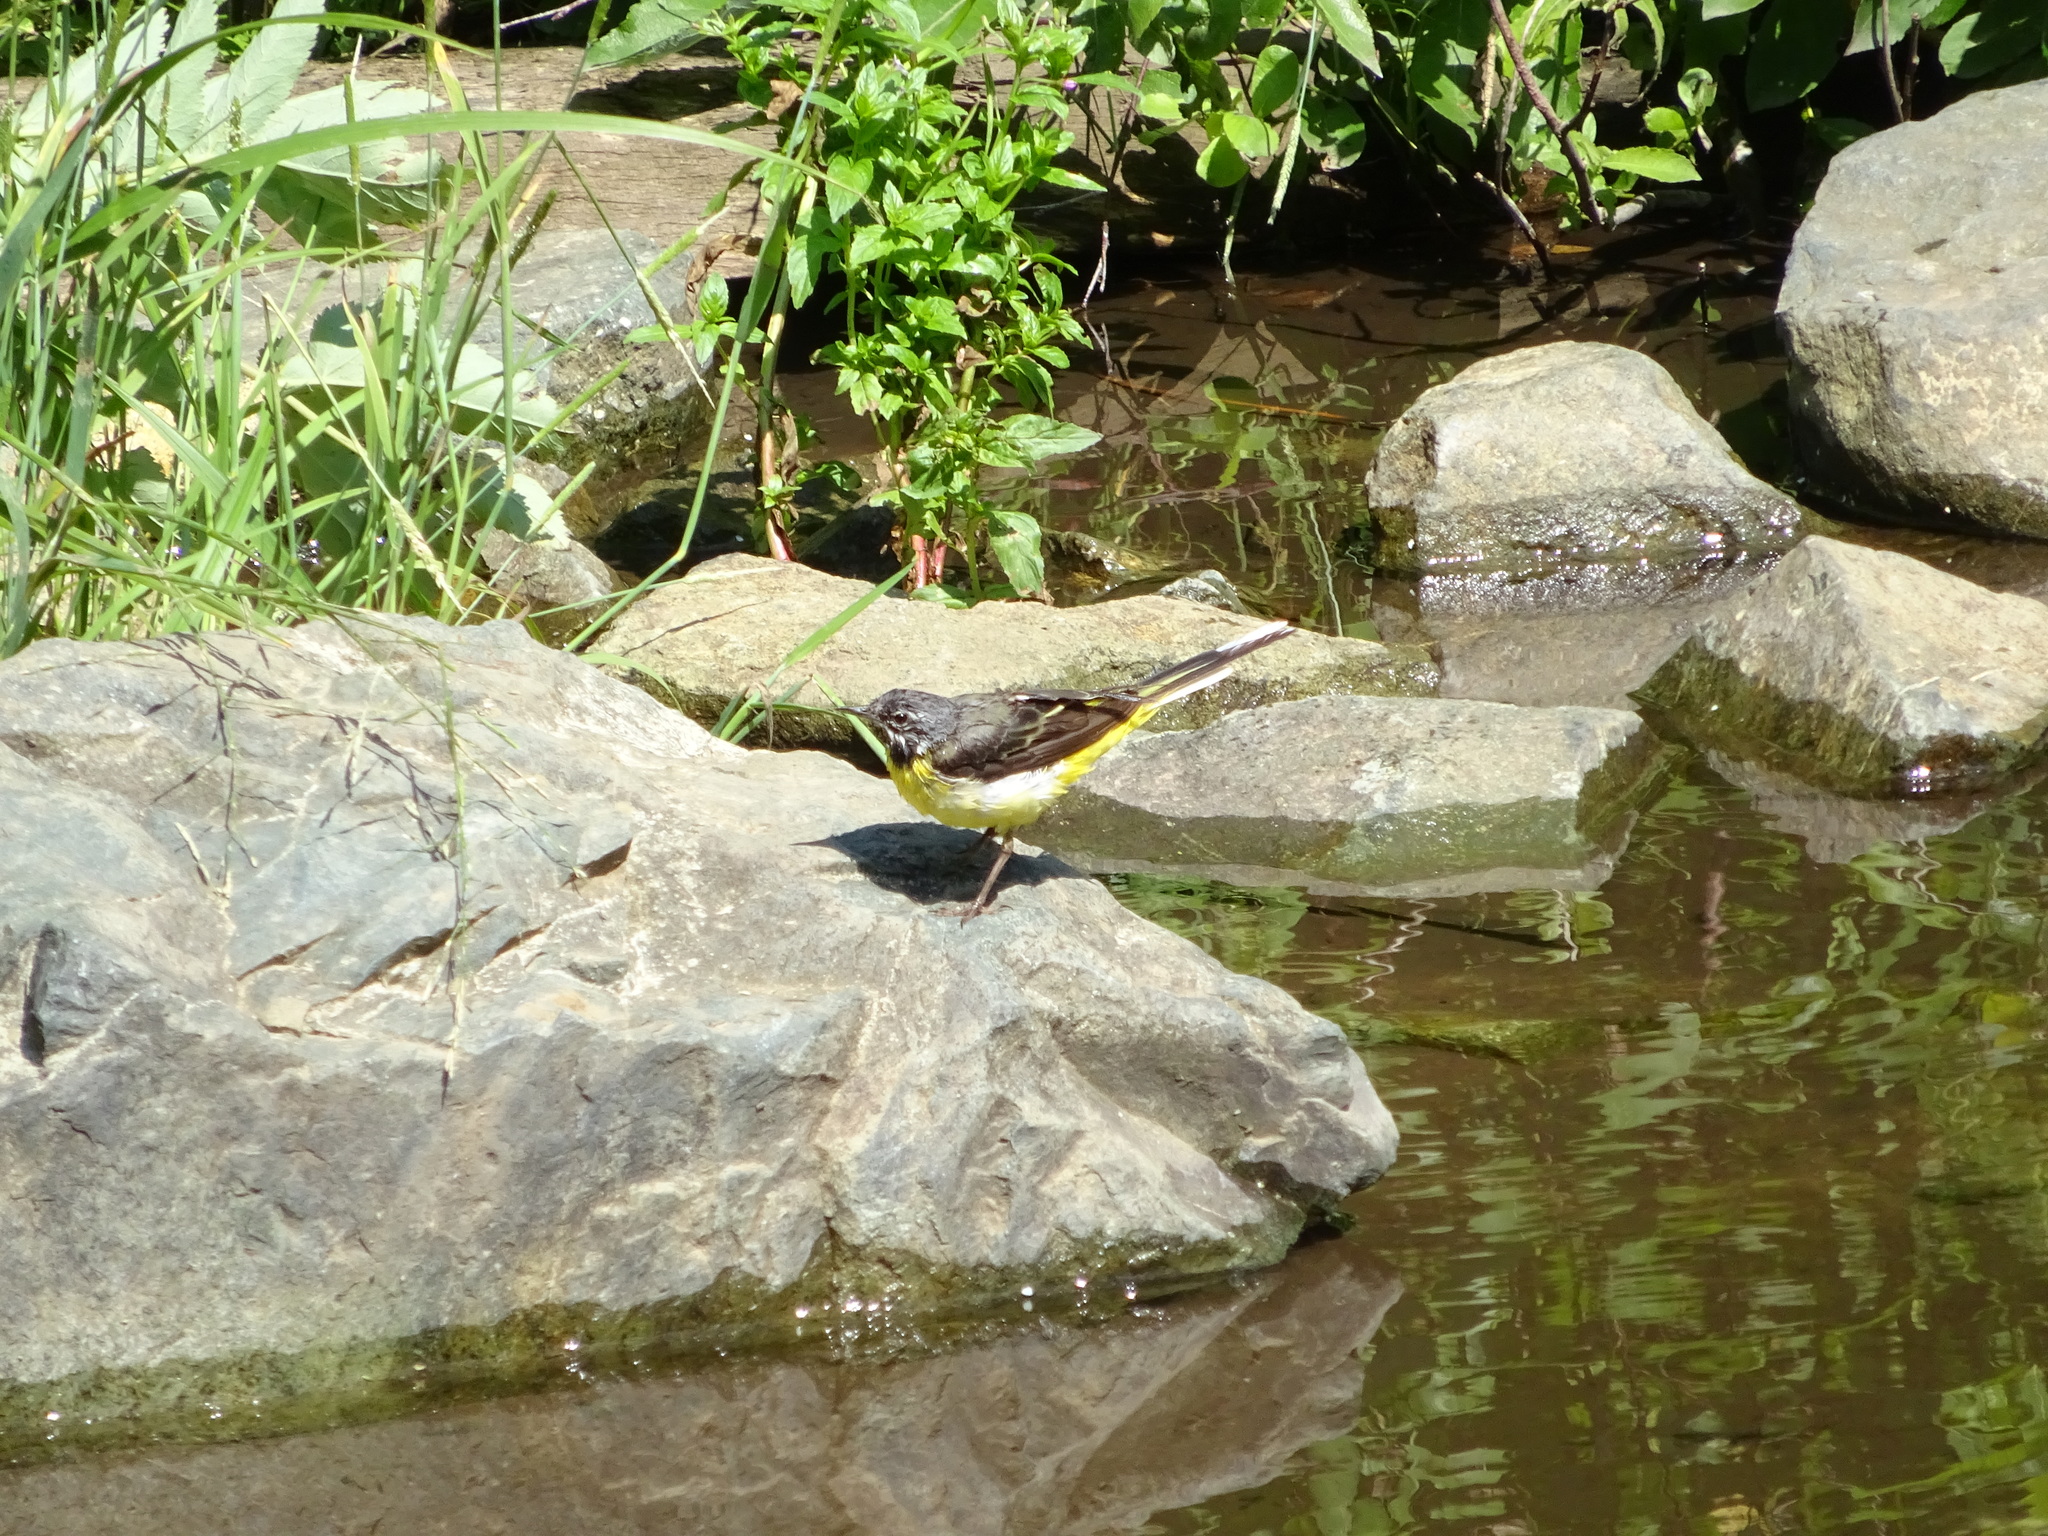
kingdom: Animalia
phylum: Chordata
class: Aves
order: Passeriformes
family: Motacillidae
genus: Motacilla
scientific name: Motacilla cinerea
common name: Grey wagtail
